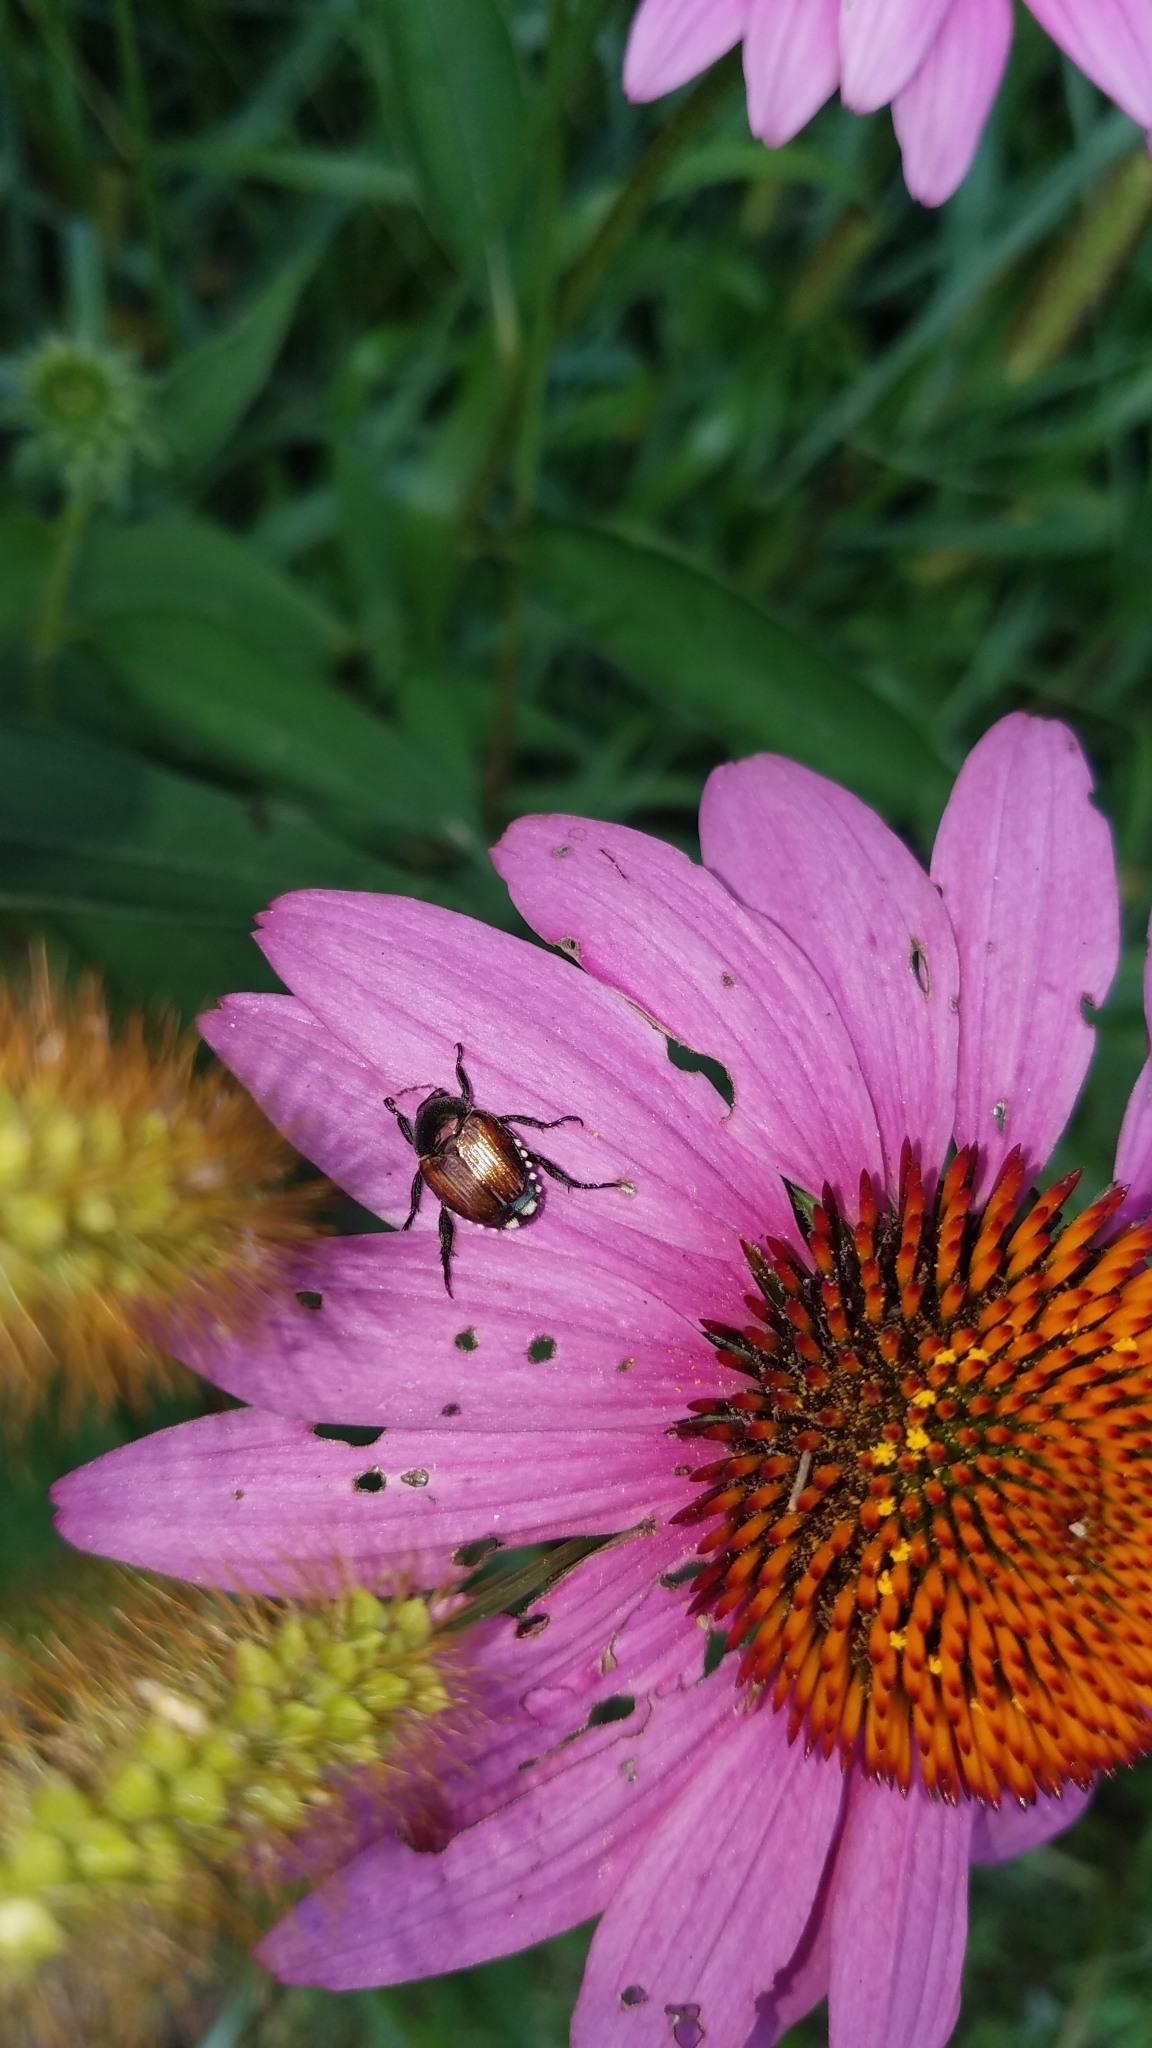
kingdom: Animalia
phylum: Arthropoda
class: Insecta
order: Coleoptera
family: Scarabaeidae
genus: Popillia
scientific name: Popillia japonica
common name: Japanese beetle
